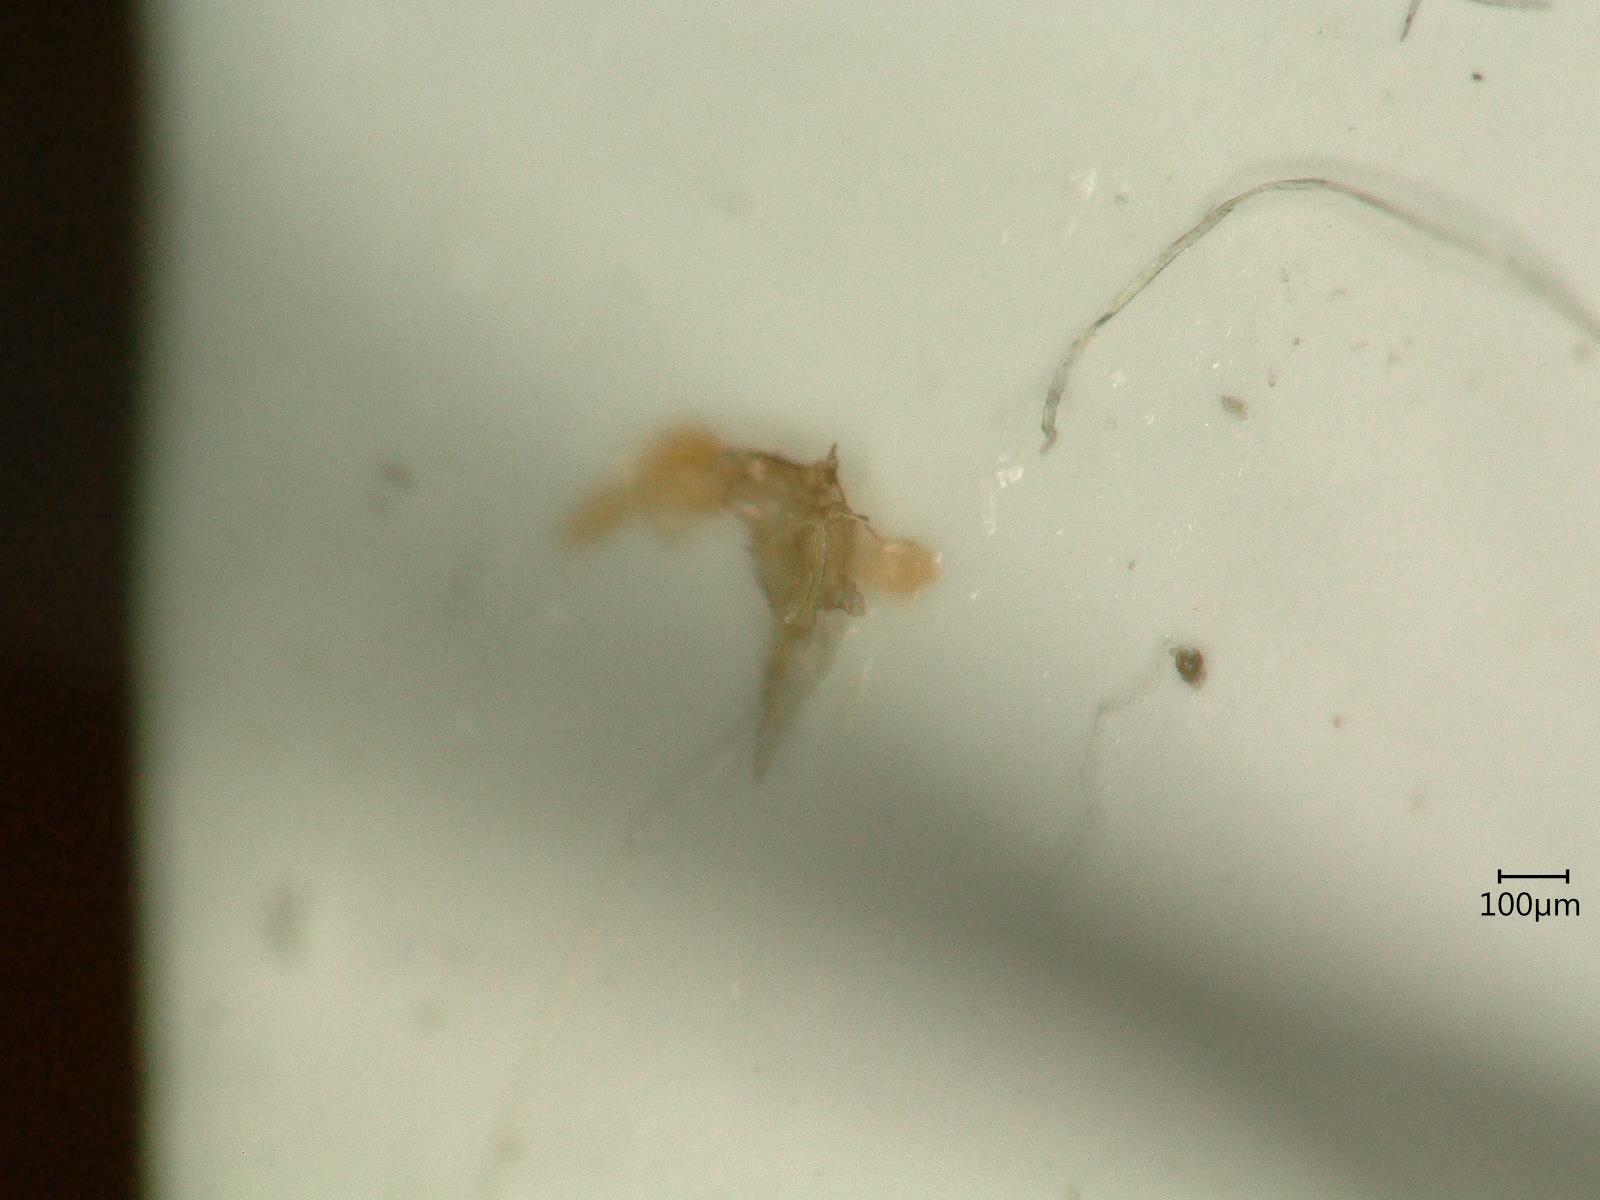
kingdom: Animalia
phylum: Arthropoda
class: Insecta
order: Hemiptera
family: Cicadellidae
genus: Eupteryx
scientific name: Eupteryx calcarata
